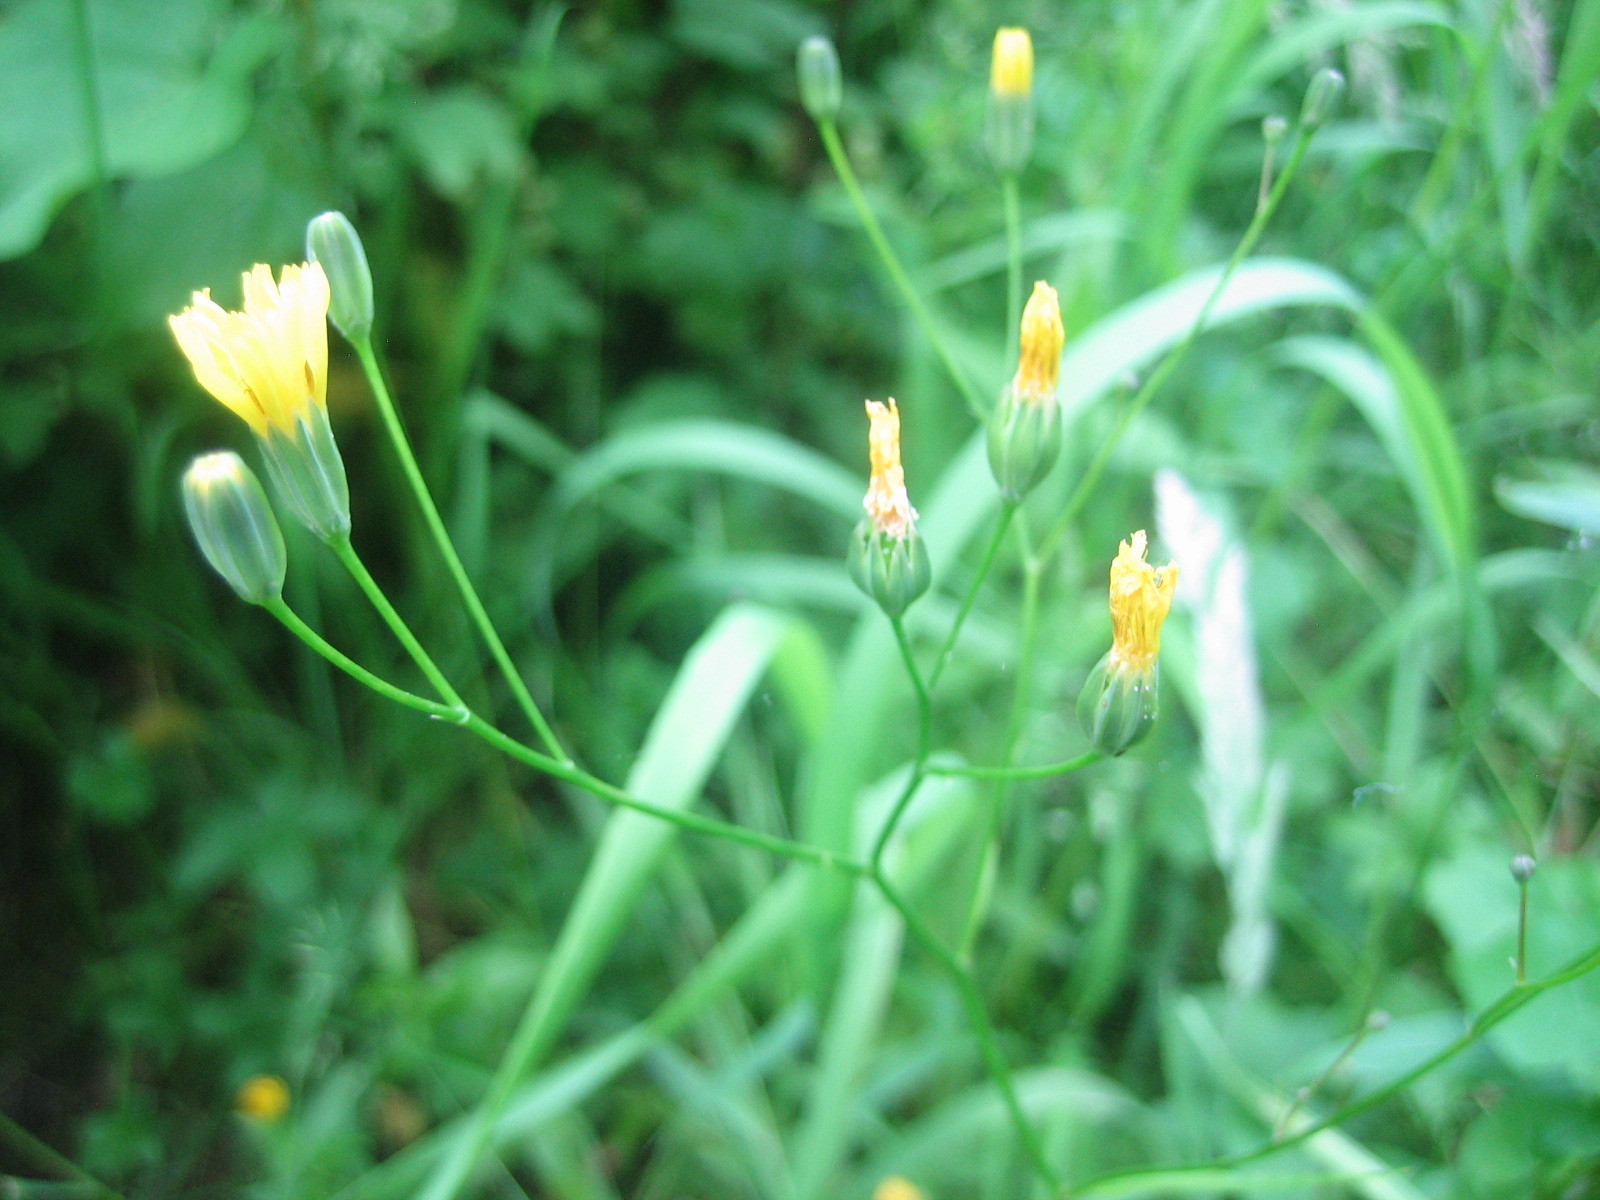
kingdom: Plantae
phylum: Tracheophyta
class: Magnoliopsida
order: Asterales
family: Asteraceae
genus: Lapsana
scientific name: Lapsana communis
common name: Nipplewort
